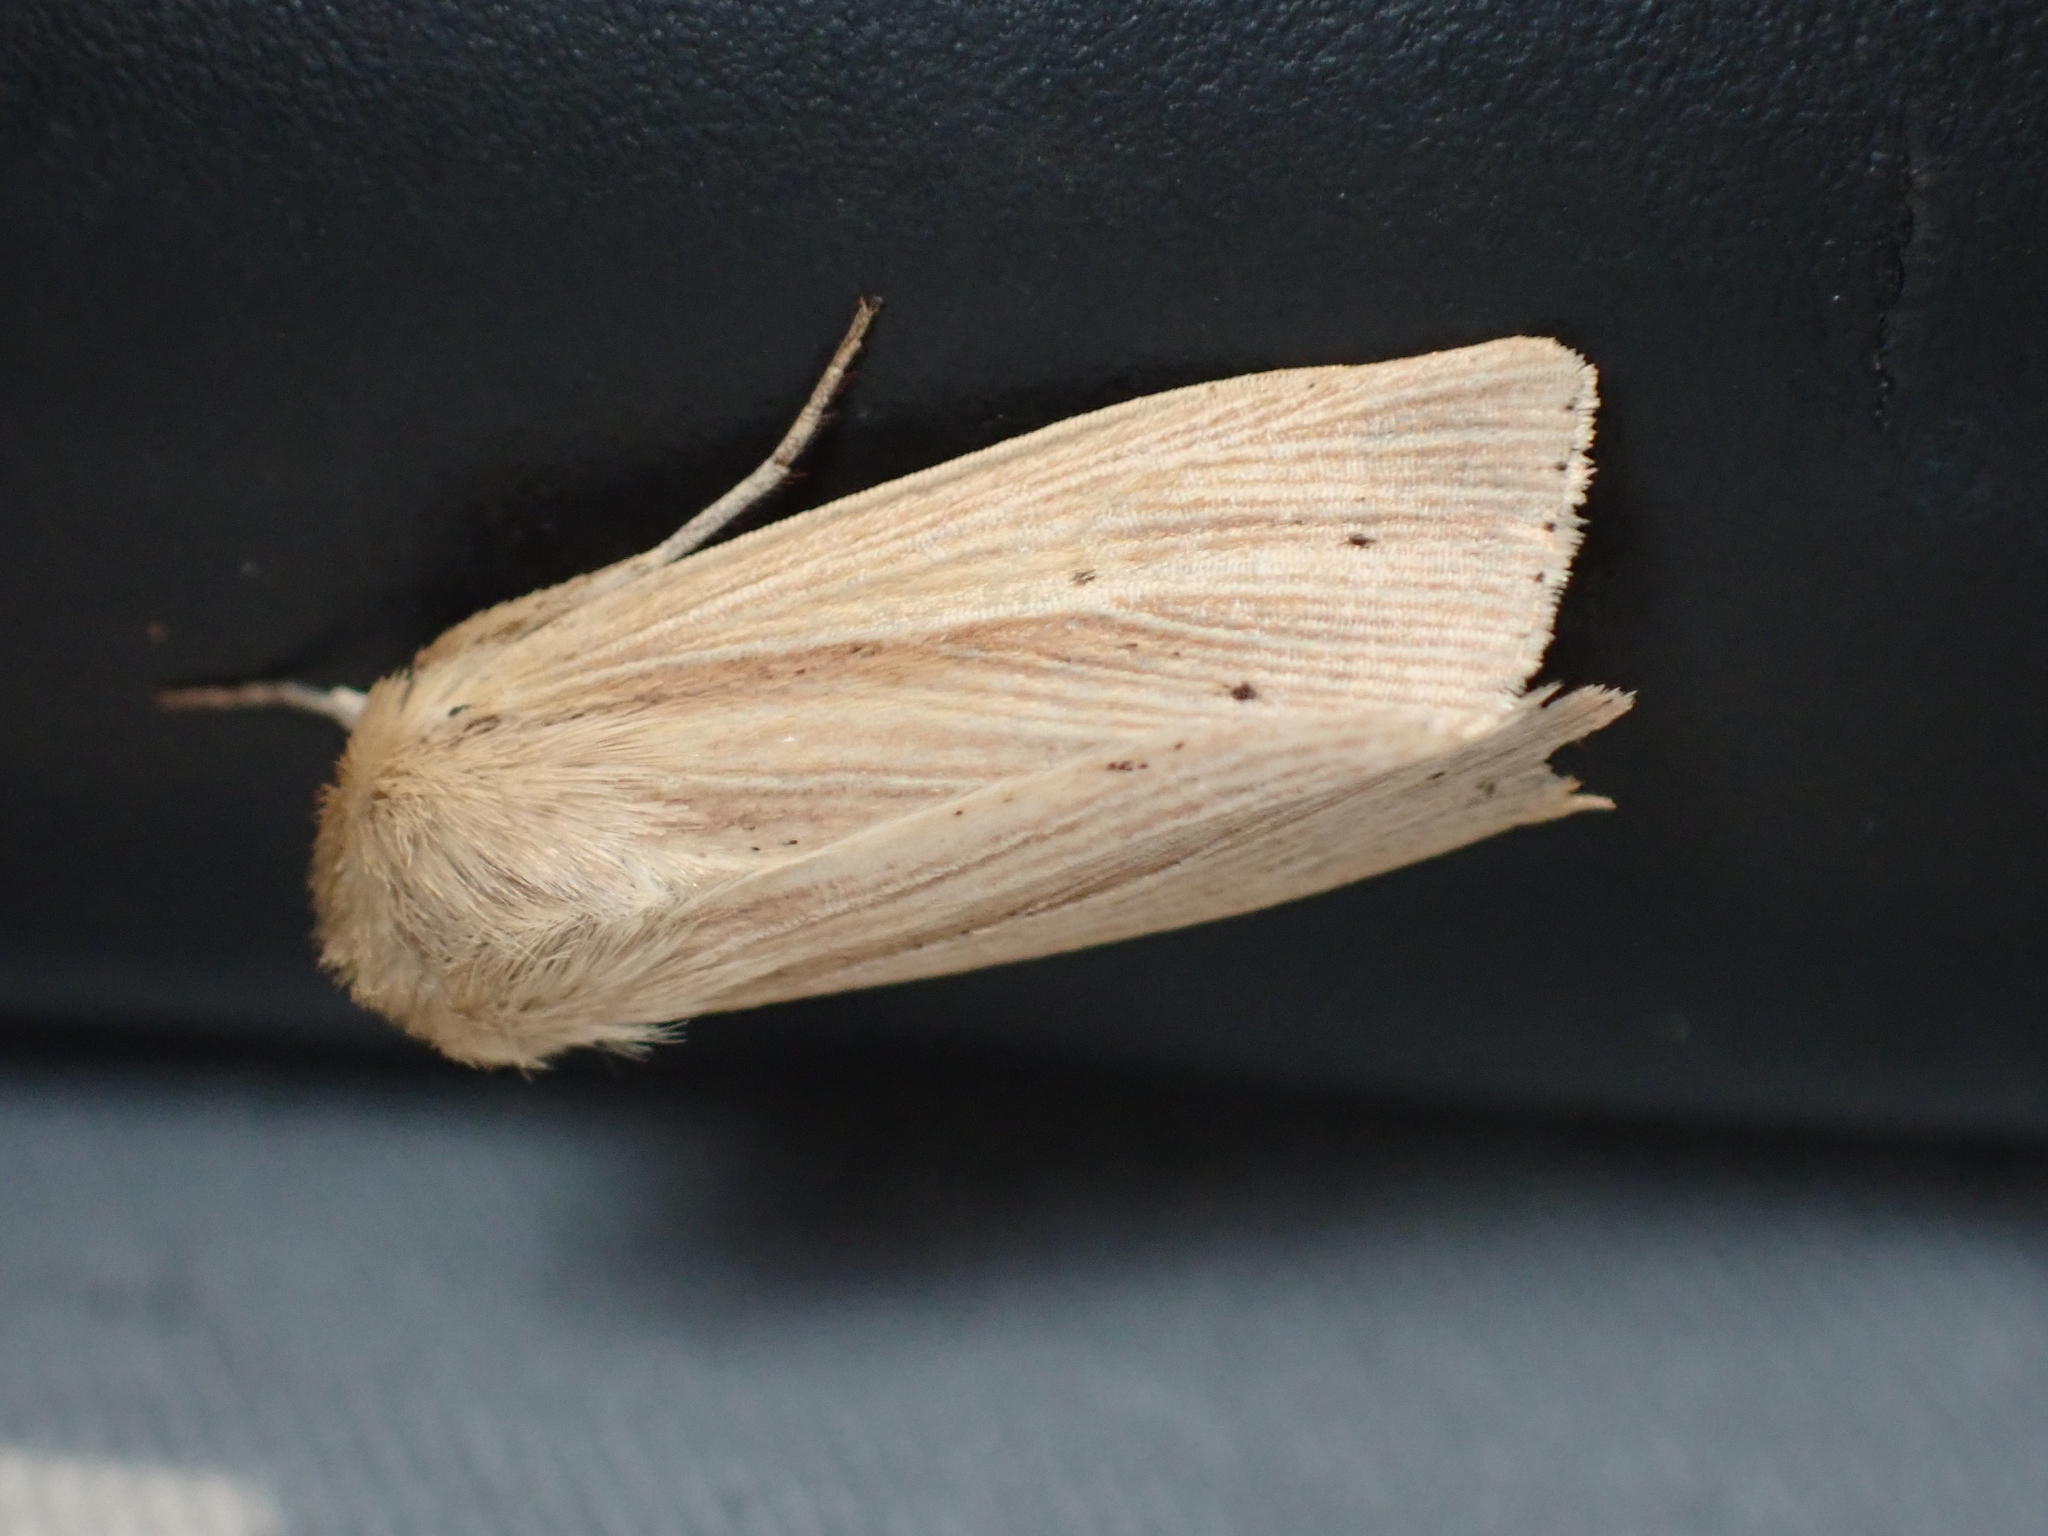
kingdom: Animalia
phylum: Arthropoda
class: Insecta
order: Lepidoptera
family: Noctuidae
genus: Mythimna
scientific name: Mythimna oxygala
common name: Lesser wainscot
